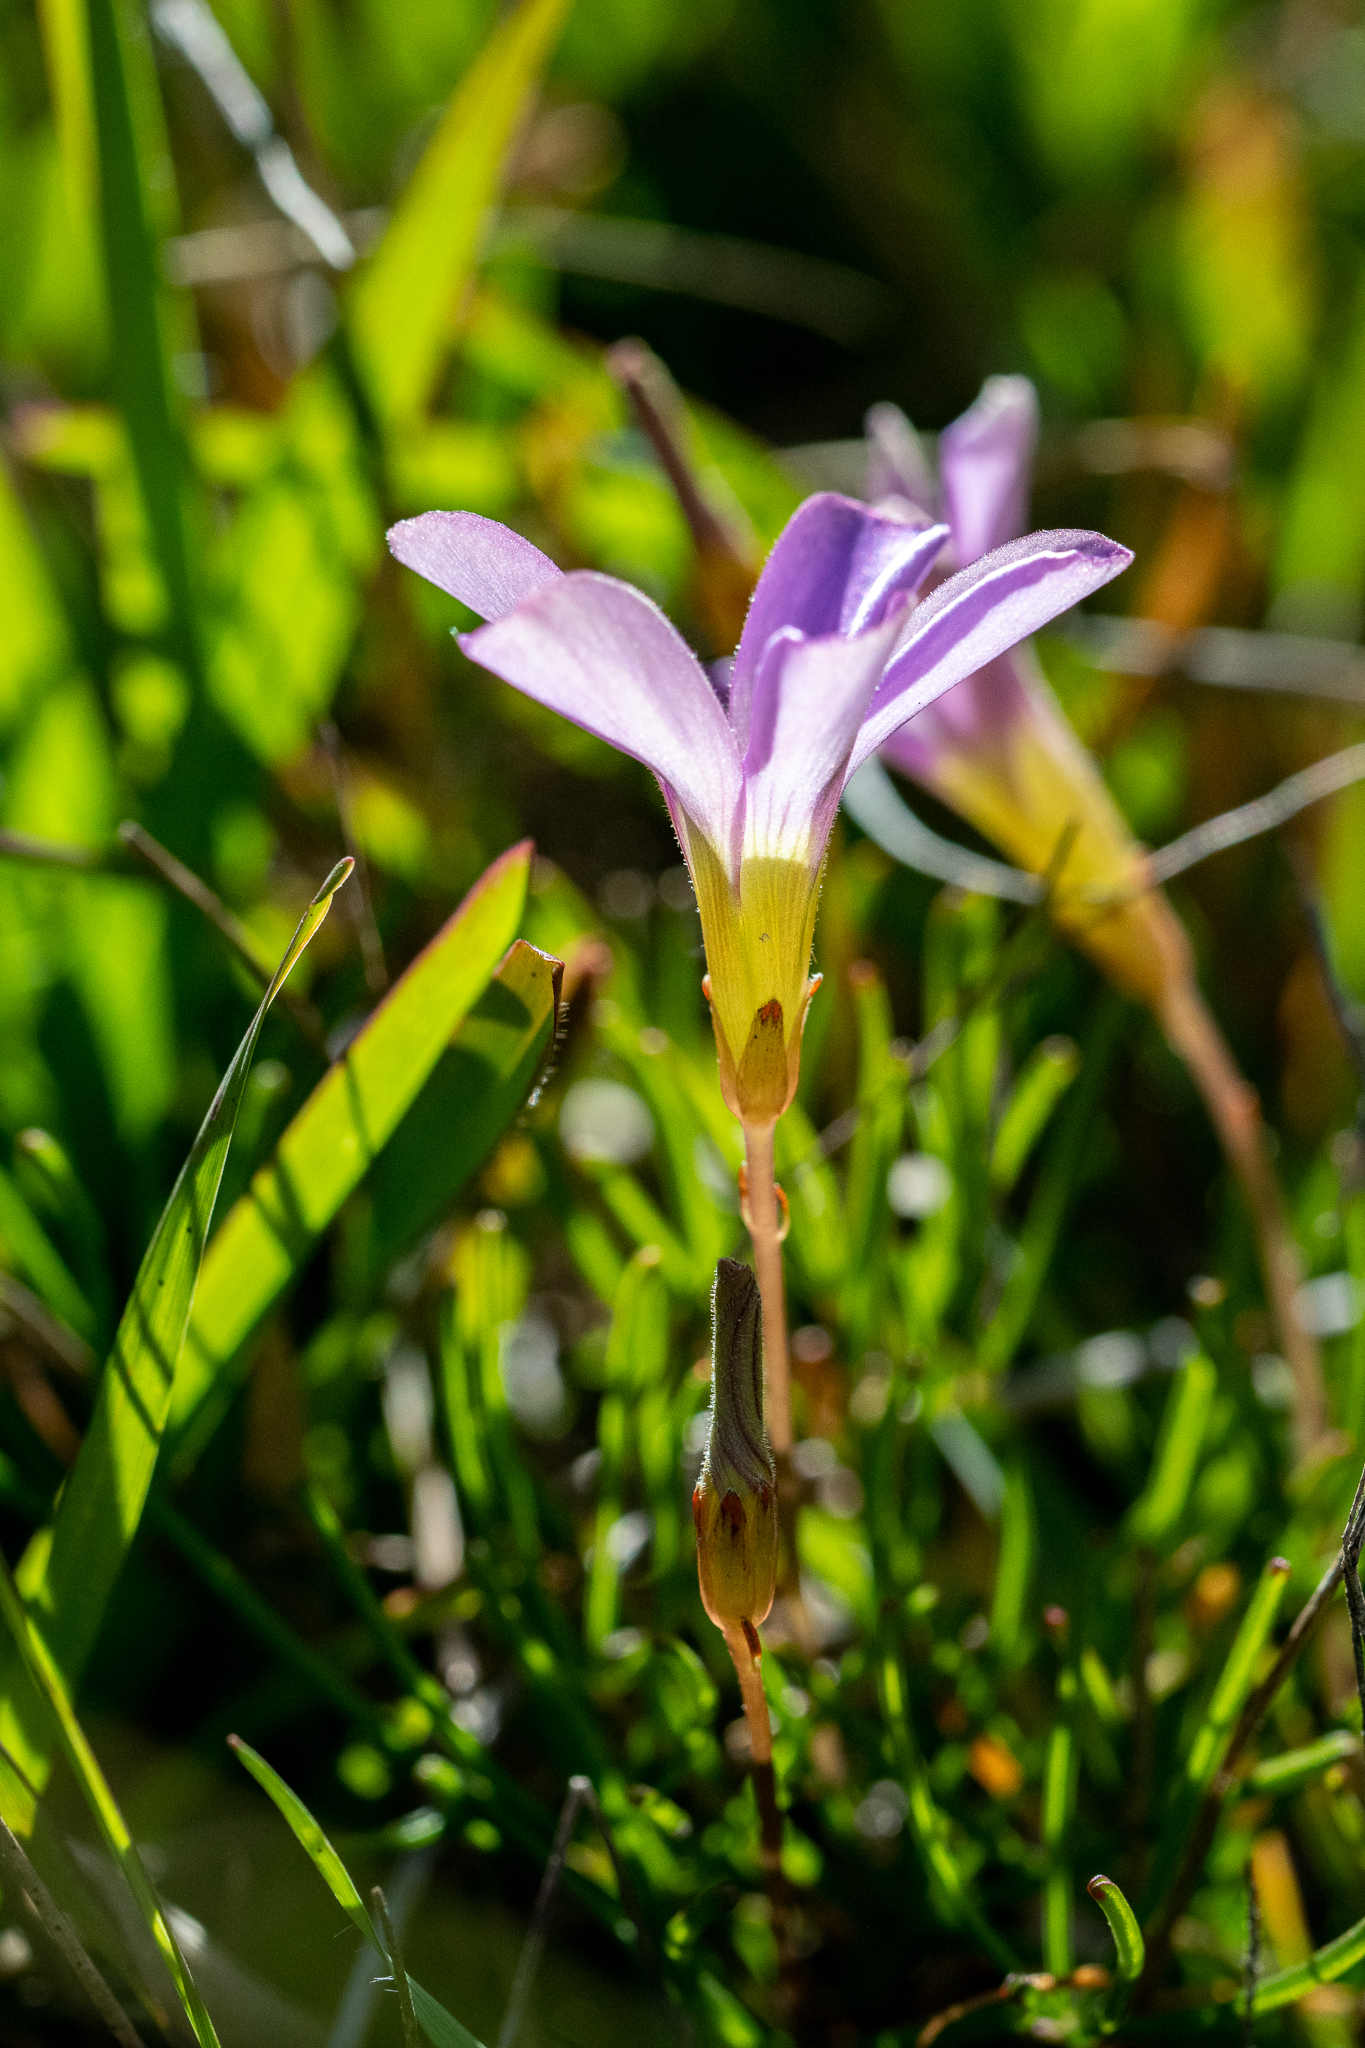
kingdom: Plantae
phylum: Tracheophyta
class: Magnoliopsida
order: Oxalidales
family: Oxalidaceae
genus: Oxalis
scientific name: Oxalis polyphylla
